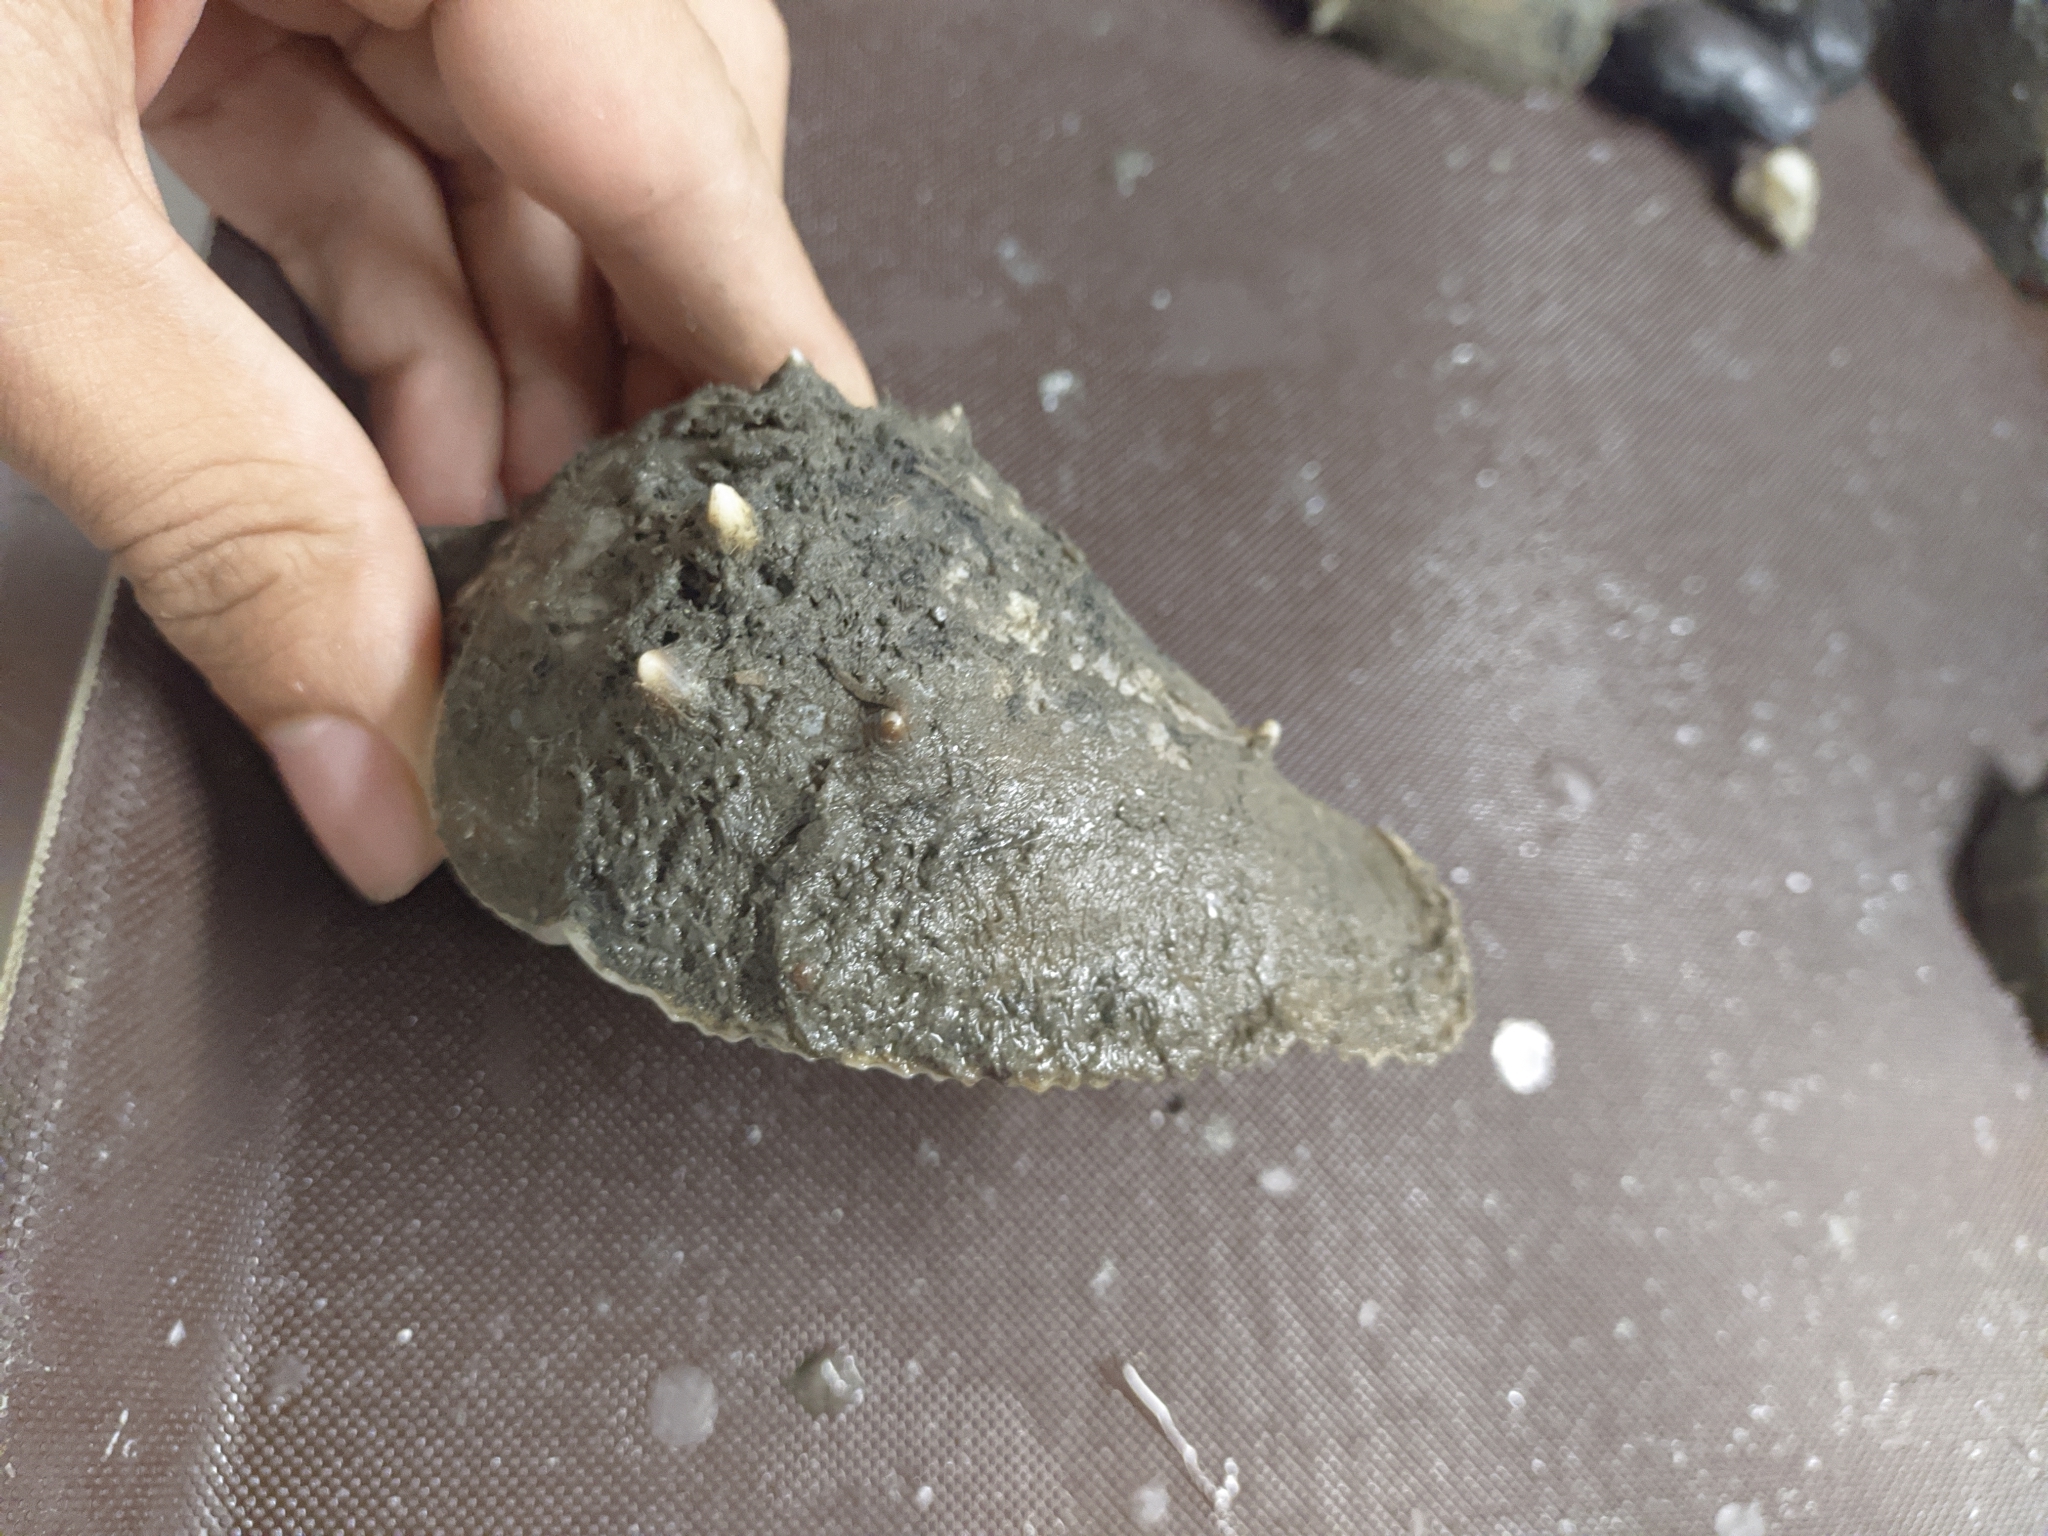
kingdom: Animalia
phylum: Mollusca
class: Gastropoda
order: Neogastropoda
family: Melongenidae
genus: Melongena
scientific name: Melongena melongena
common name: West indian crown conch
